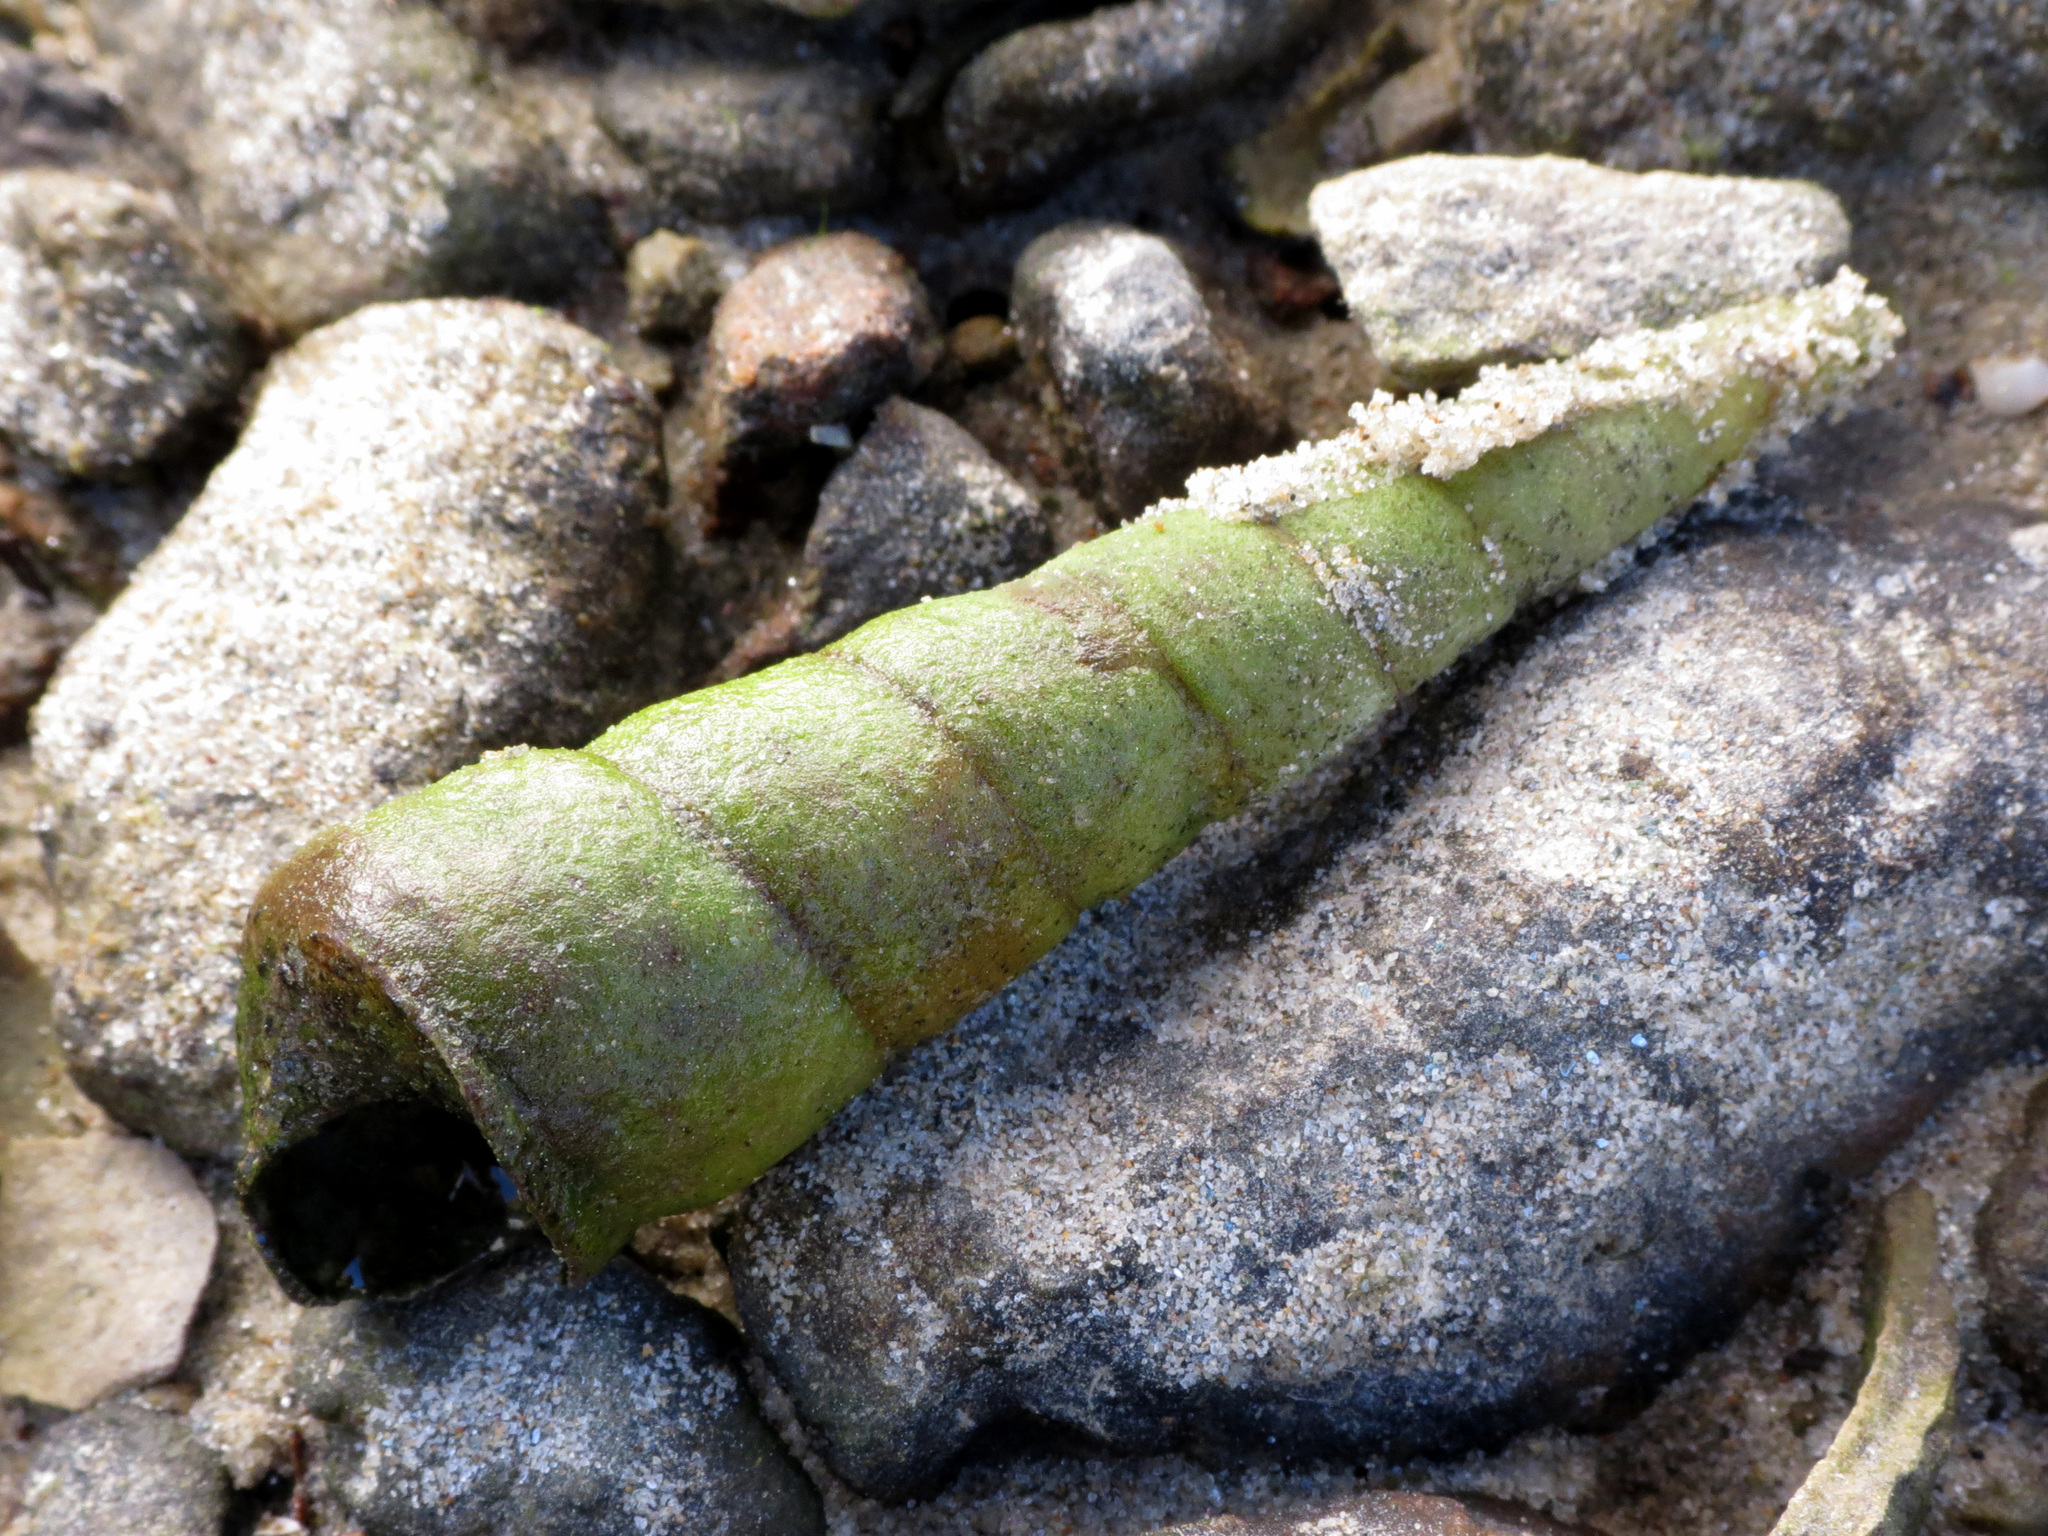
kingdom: Animalia
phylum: Mollusca
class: Gastropoda
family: Turritellidae
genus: Maoricolpus
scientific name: Maoricolpus roseus
